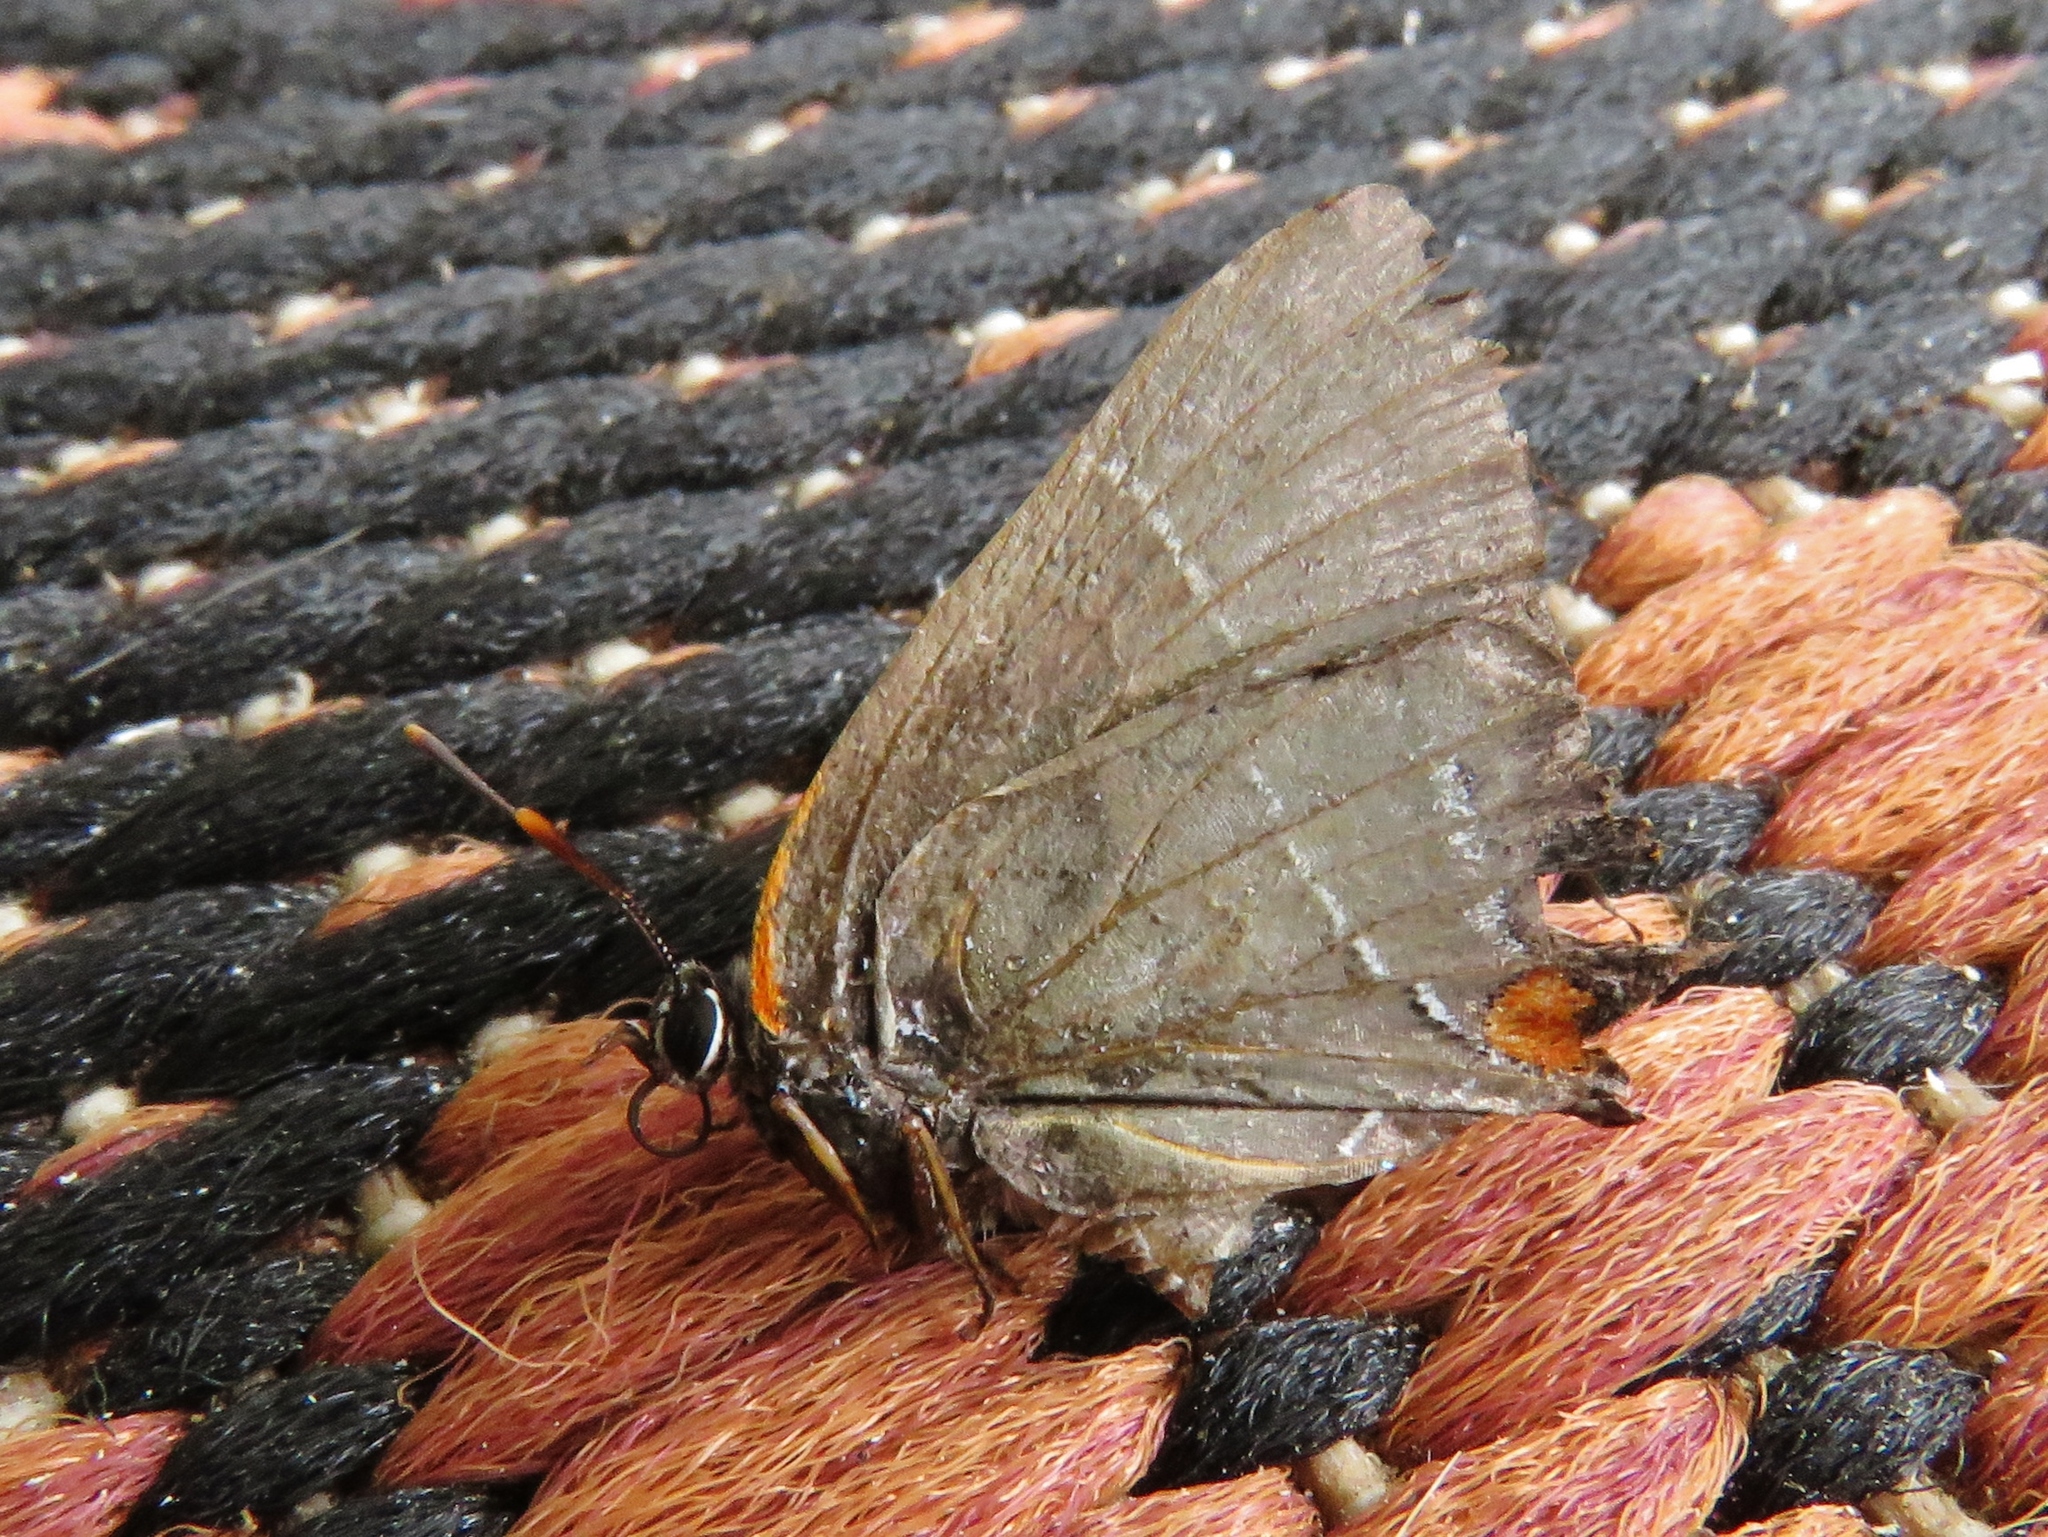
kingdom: Animalia
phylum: Arthropoda
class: Insecta
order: Lepidoptera
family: Lycaenidae
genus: Parrhasius
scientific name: Parrhasius m-album
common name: White m hairstreak
